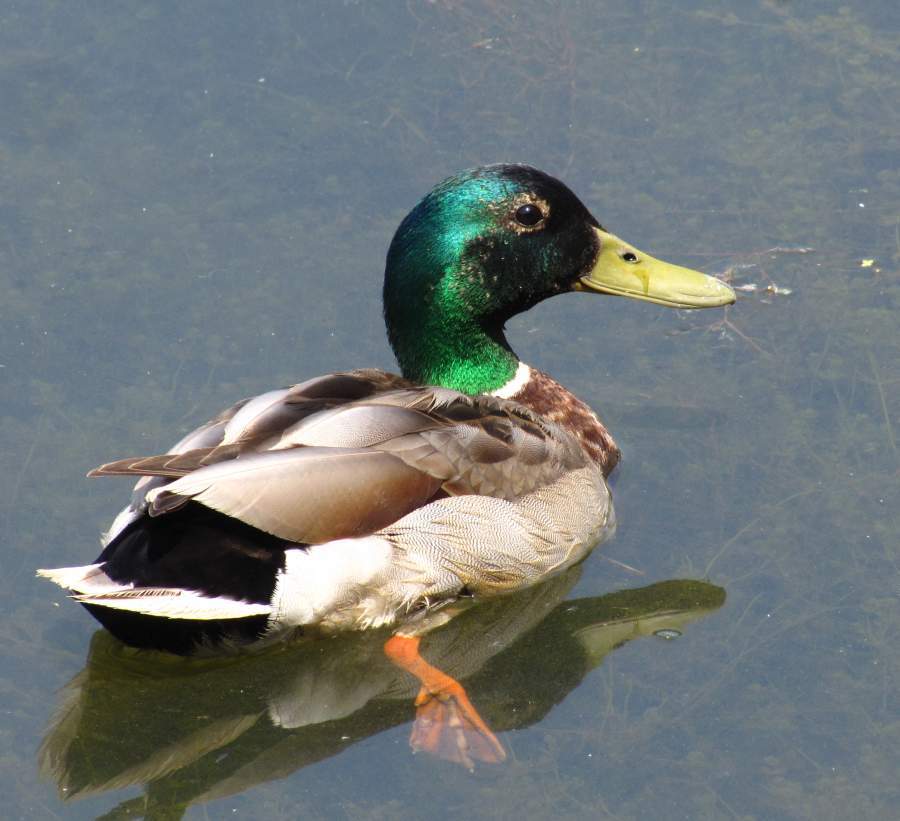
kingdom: Animalia
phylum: Chordata
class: Aves
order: Anseriformes
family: Anatidae
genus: Anas
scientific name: Anas platyrhynchos
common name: Mallard
